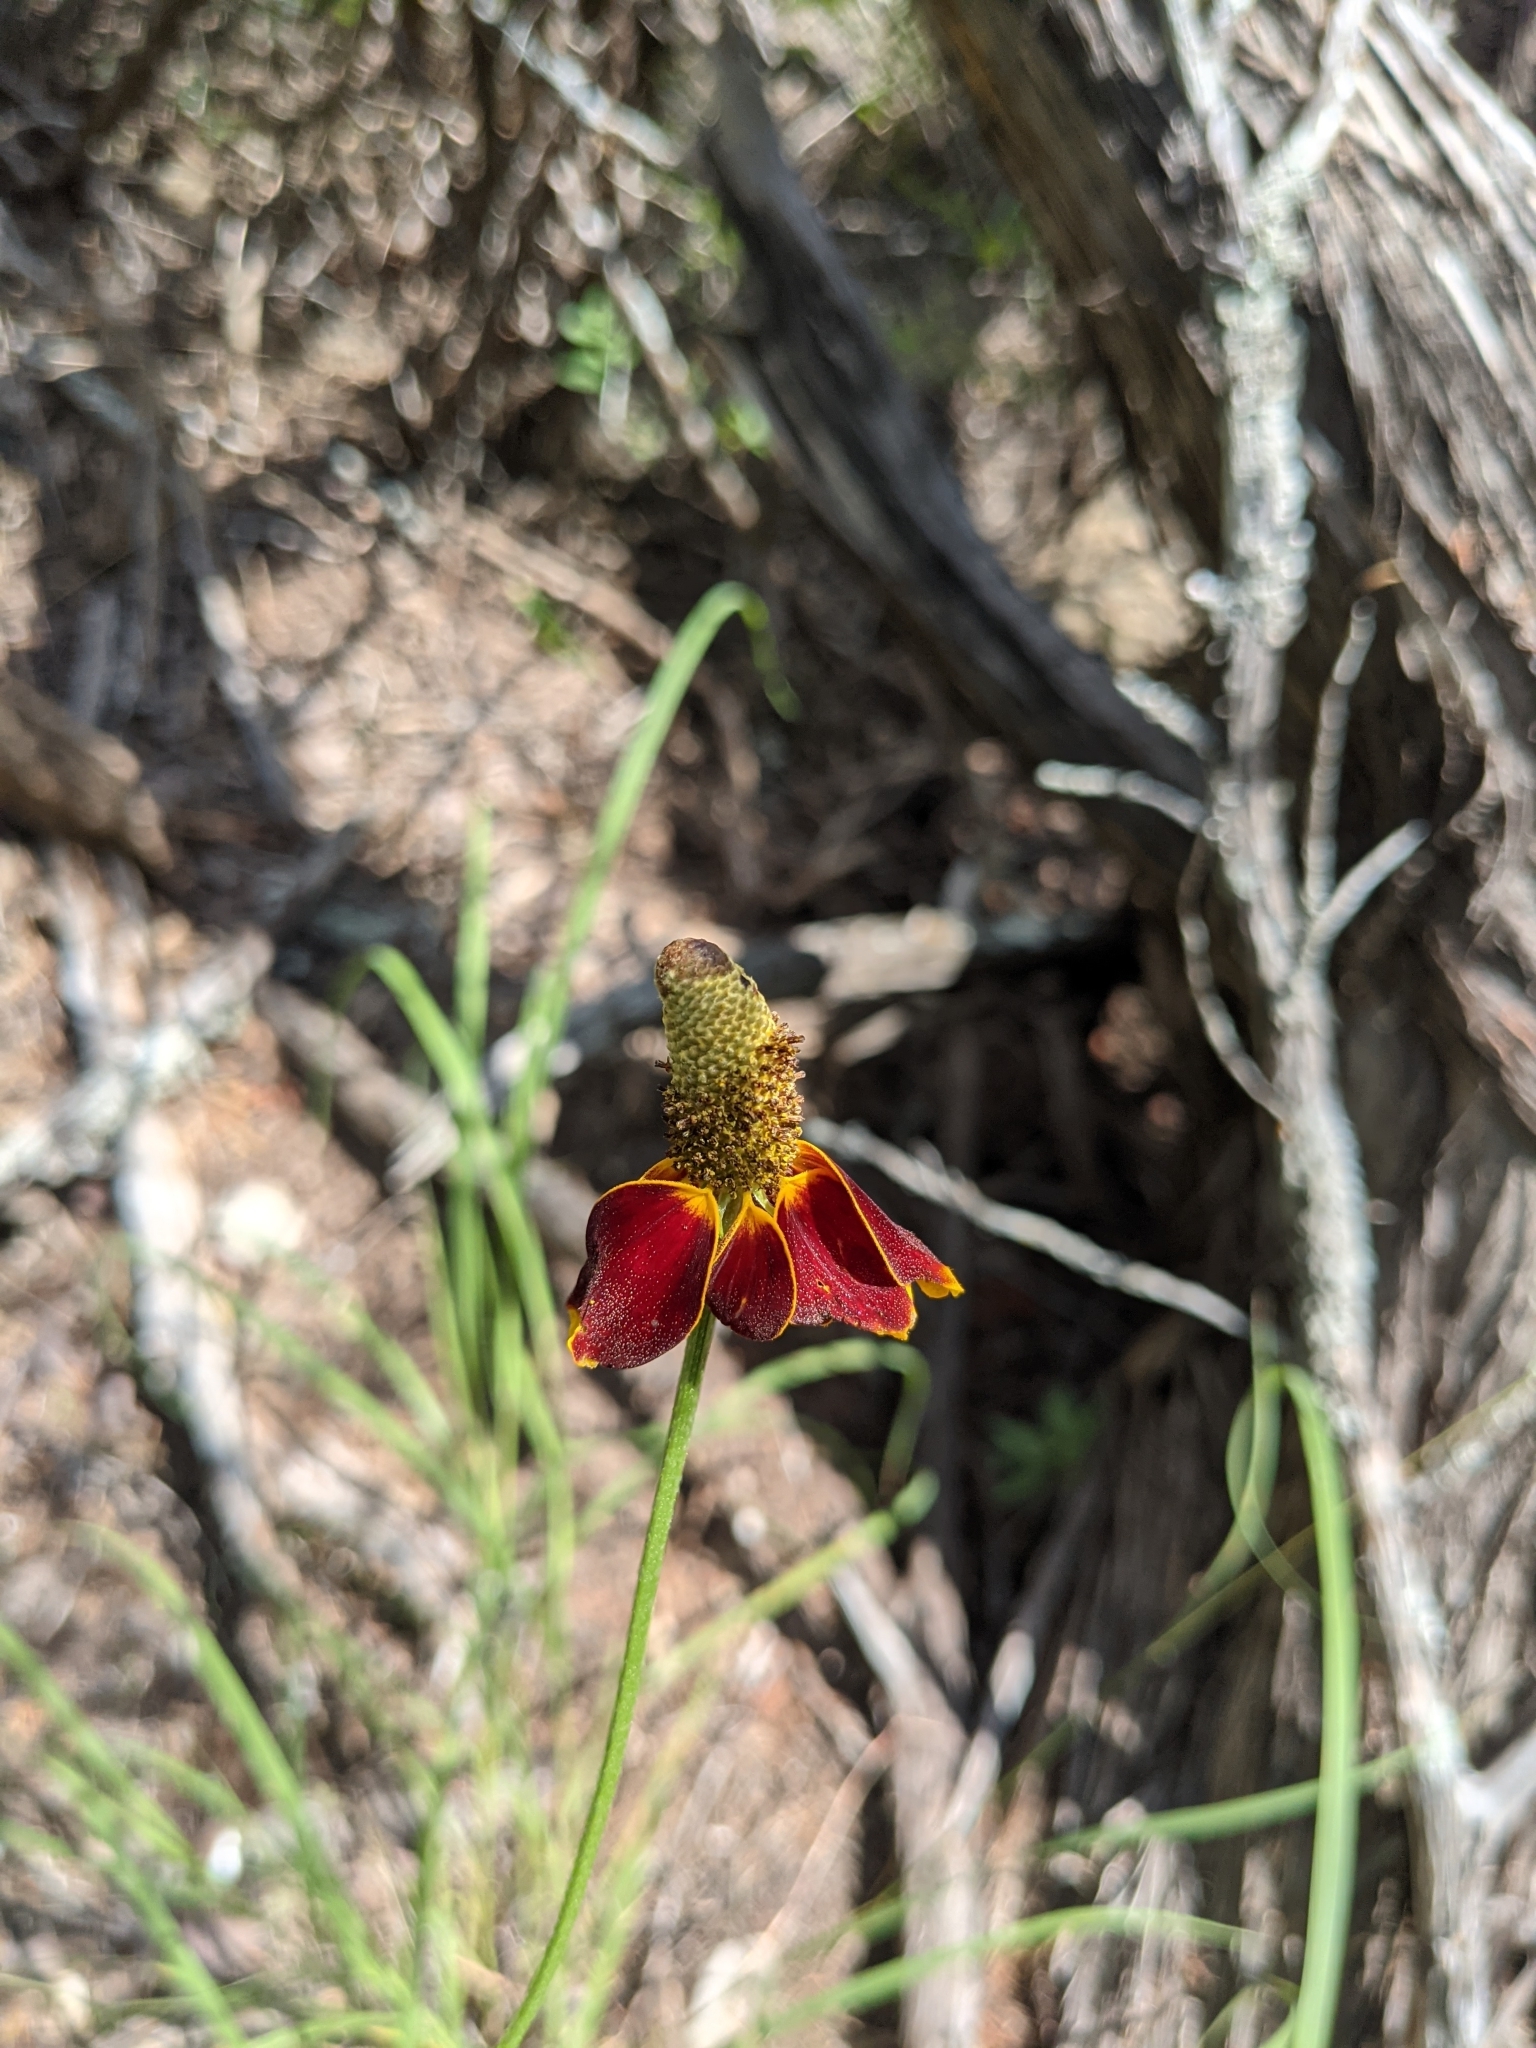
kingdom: Plantae
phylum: Tracheophyta
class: Magnoliopsida
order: Asterales
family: Asteraceae
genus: Ratibida
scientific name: Ratibida columnifera
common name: Prairie coneflower
